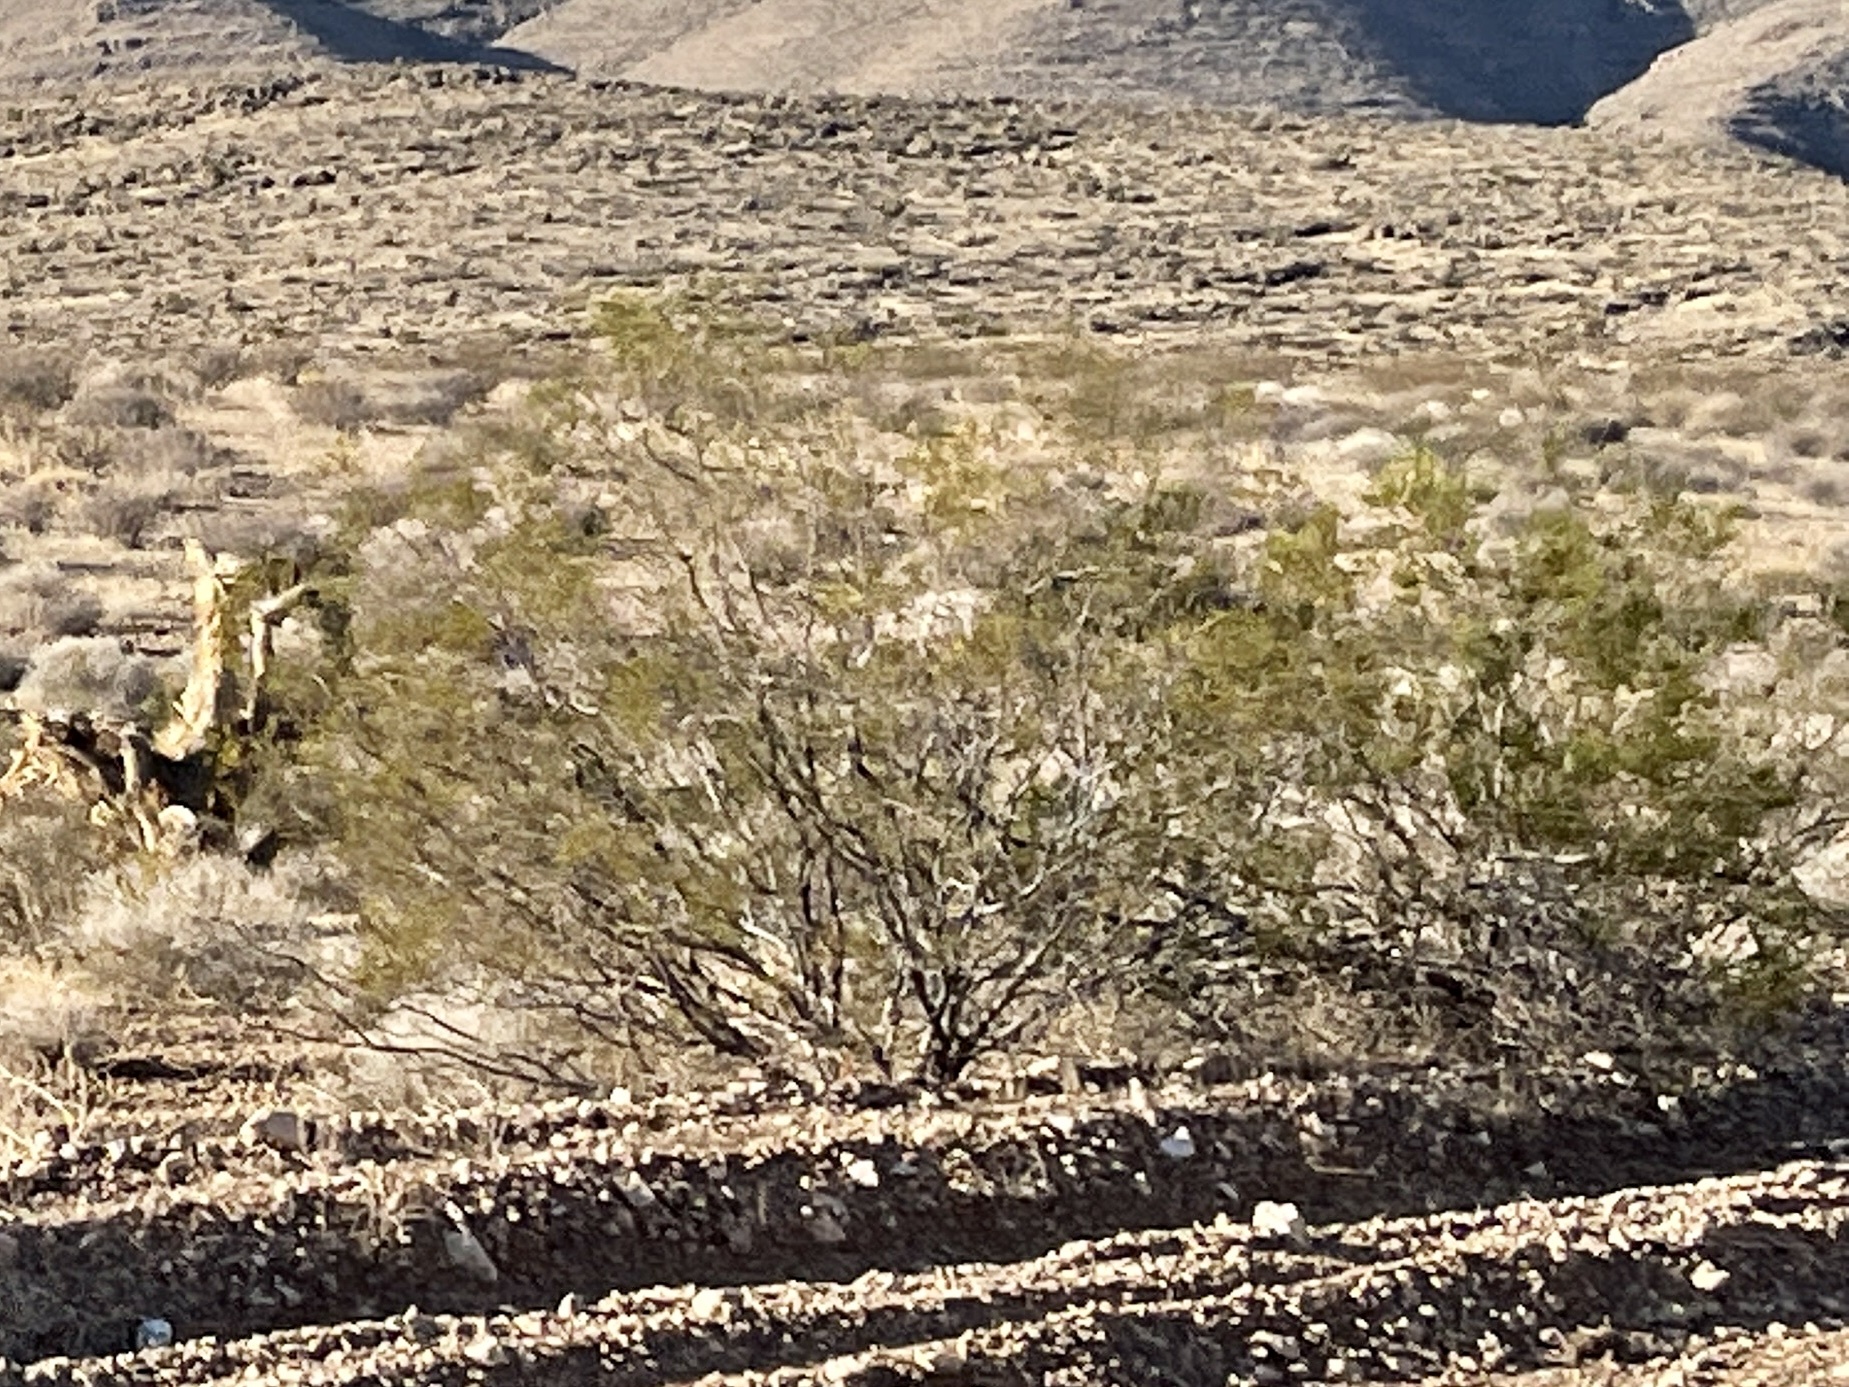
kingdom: Plantae
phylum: Tracheophyta
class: Magnoliopsida
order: Zygophyllales
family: Zygophyllaceae
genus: Larrea
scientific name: Larrea tridentata
